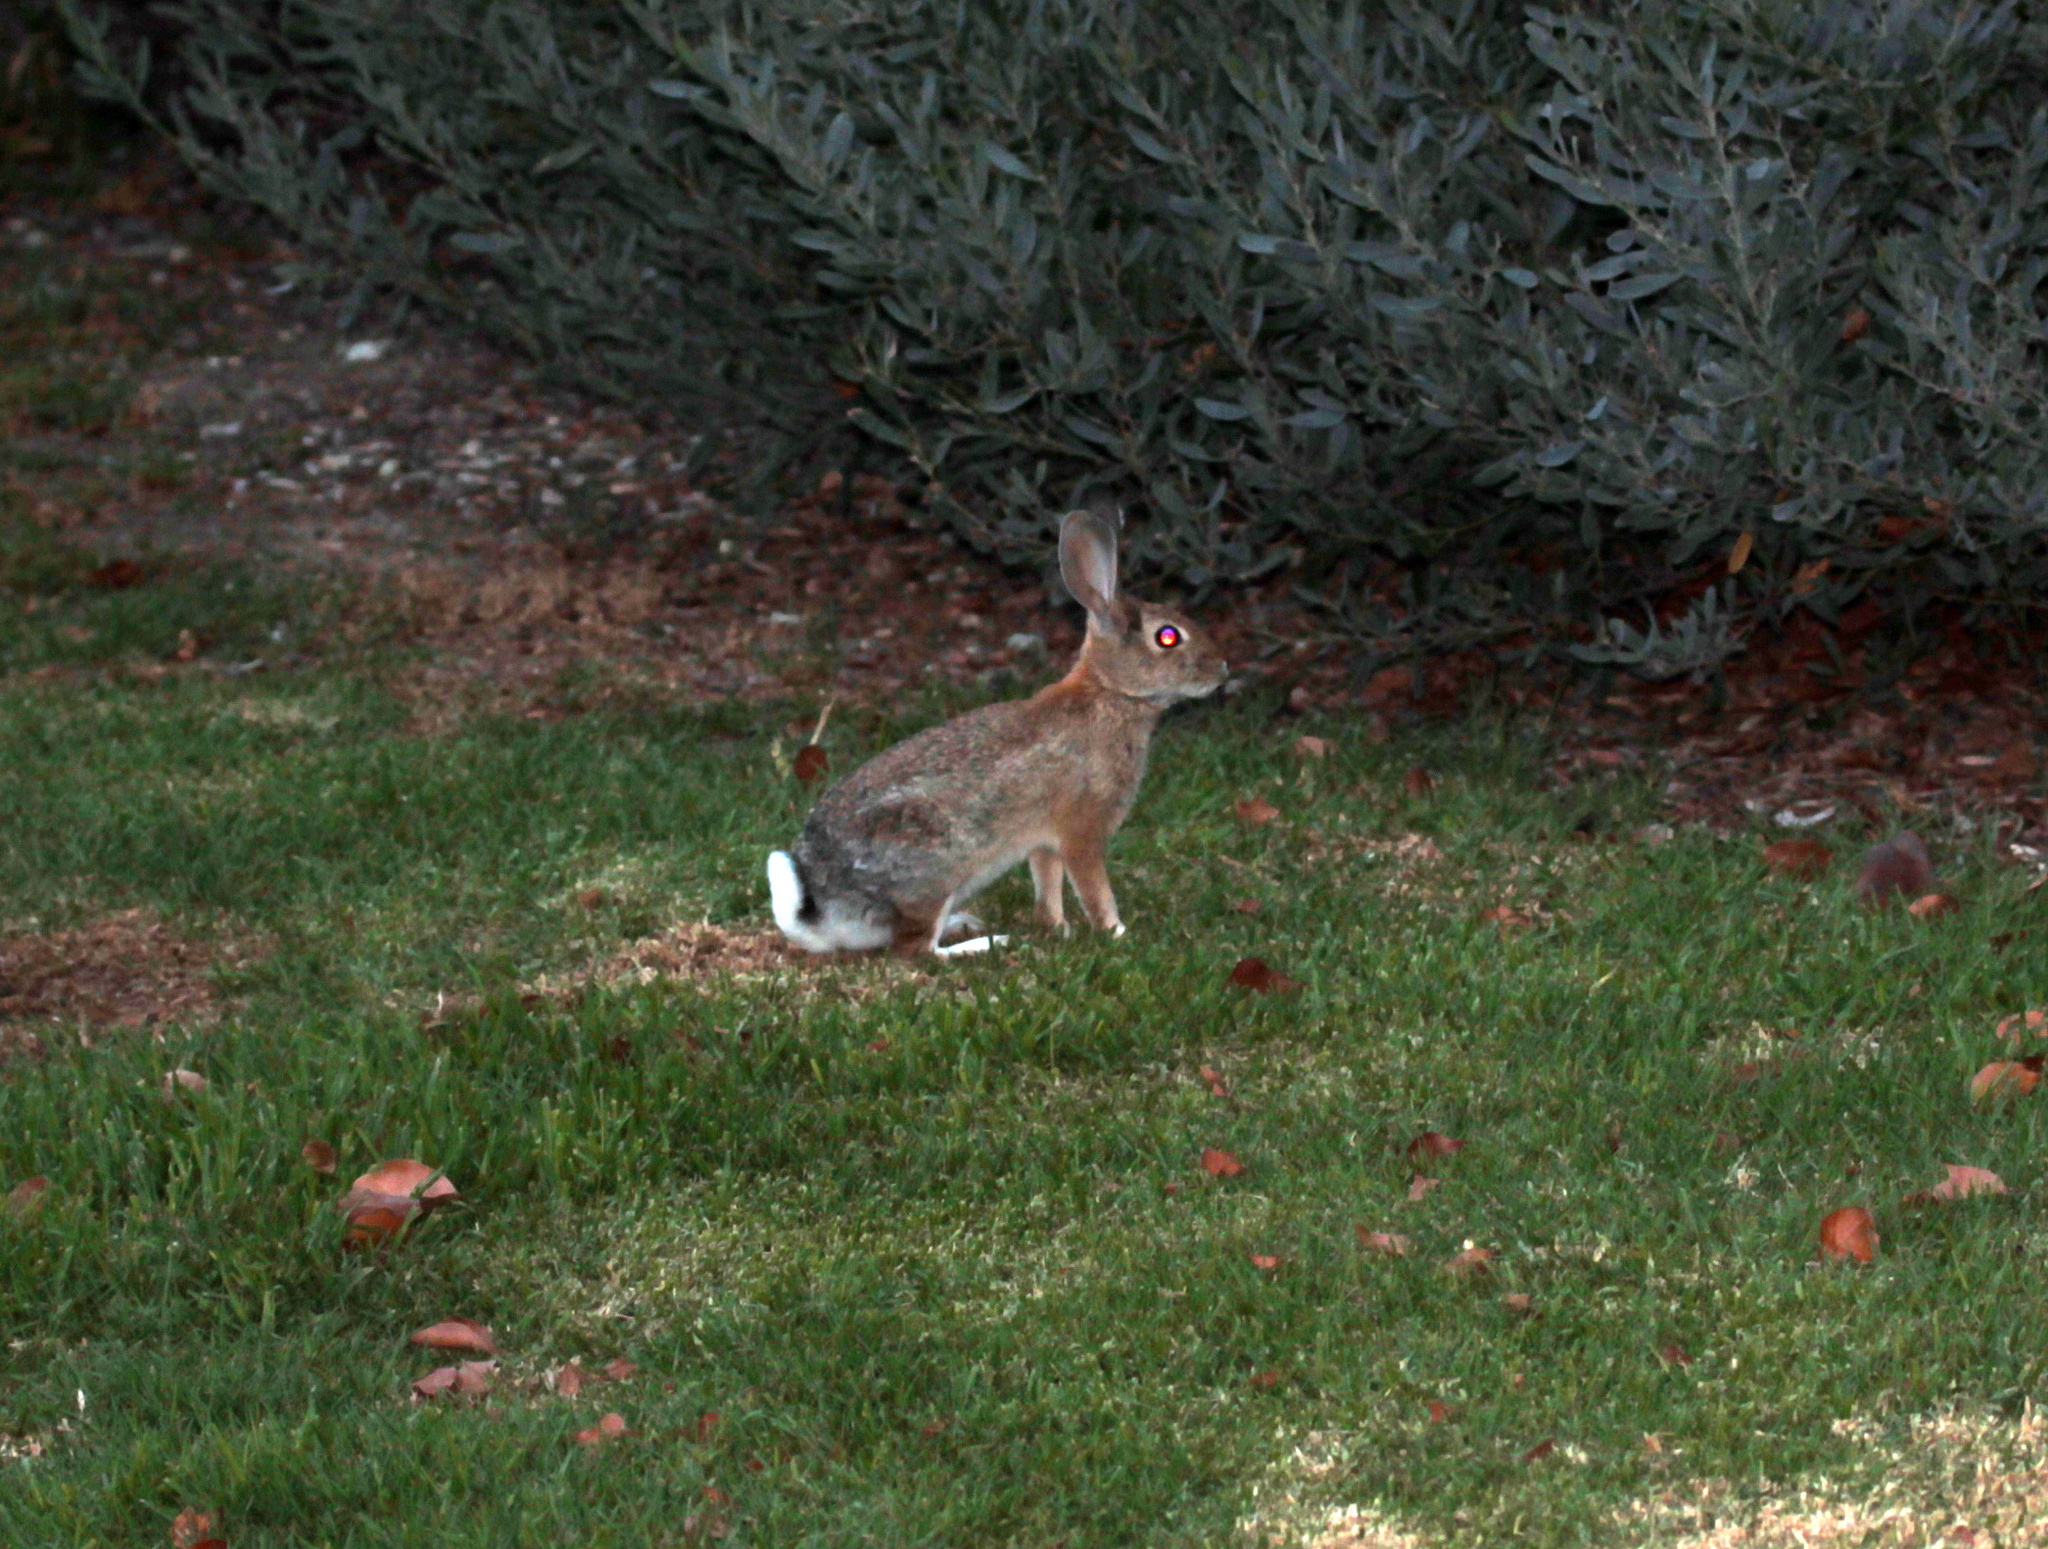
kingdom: Animalia
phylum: Chordata
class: Mammalia
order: Lagomorpha
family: Leporidae
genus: Sylvilagus
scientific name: Sylvilagus audubonii
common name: Desert cottontail
